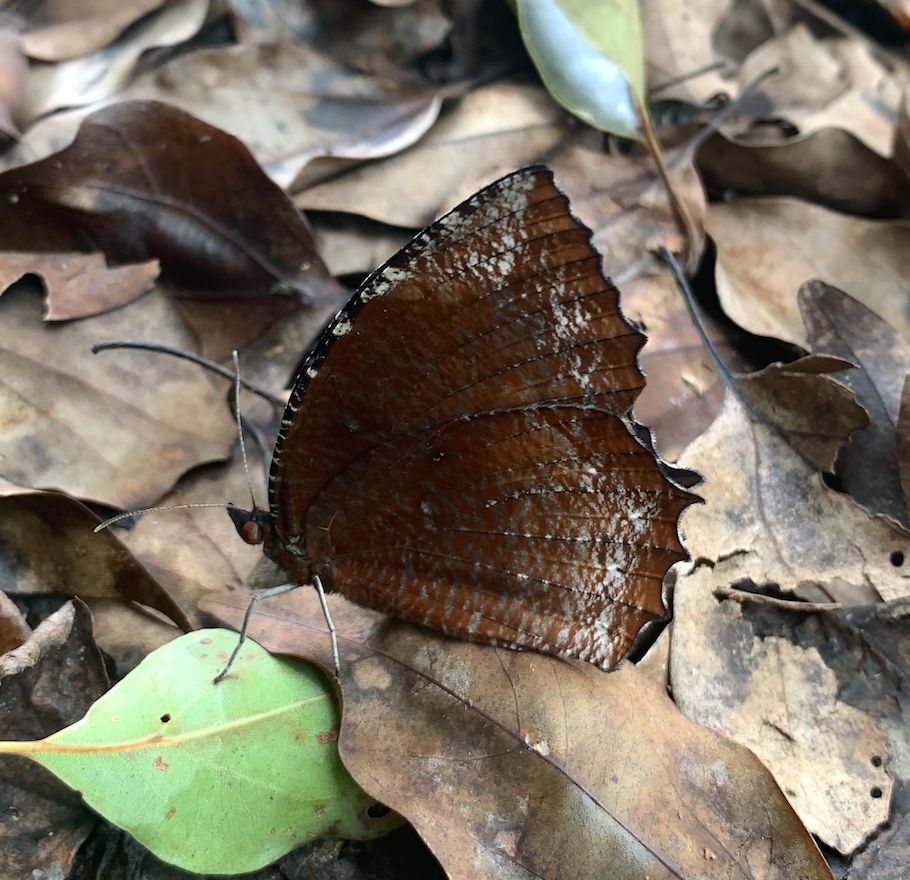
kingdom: Animalia
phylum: Arthropoda
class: Insecta
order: Lepidoptera
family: Nymphalidae
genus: Elymnias
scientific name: Elymnias hypermnestra
